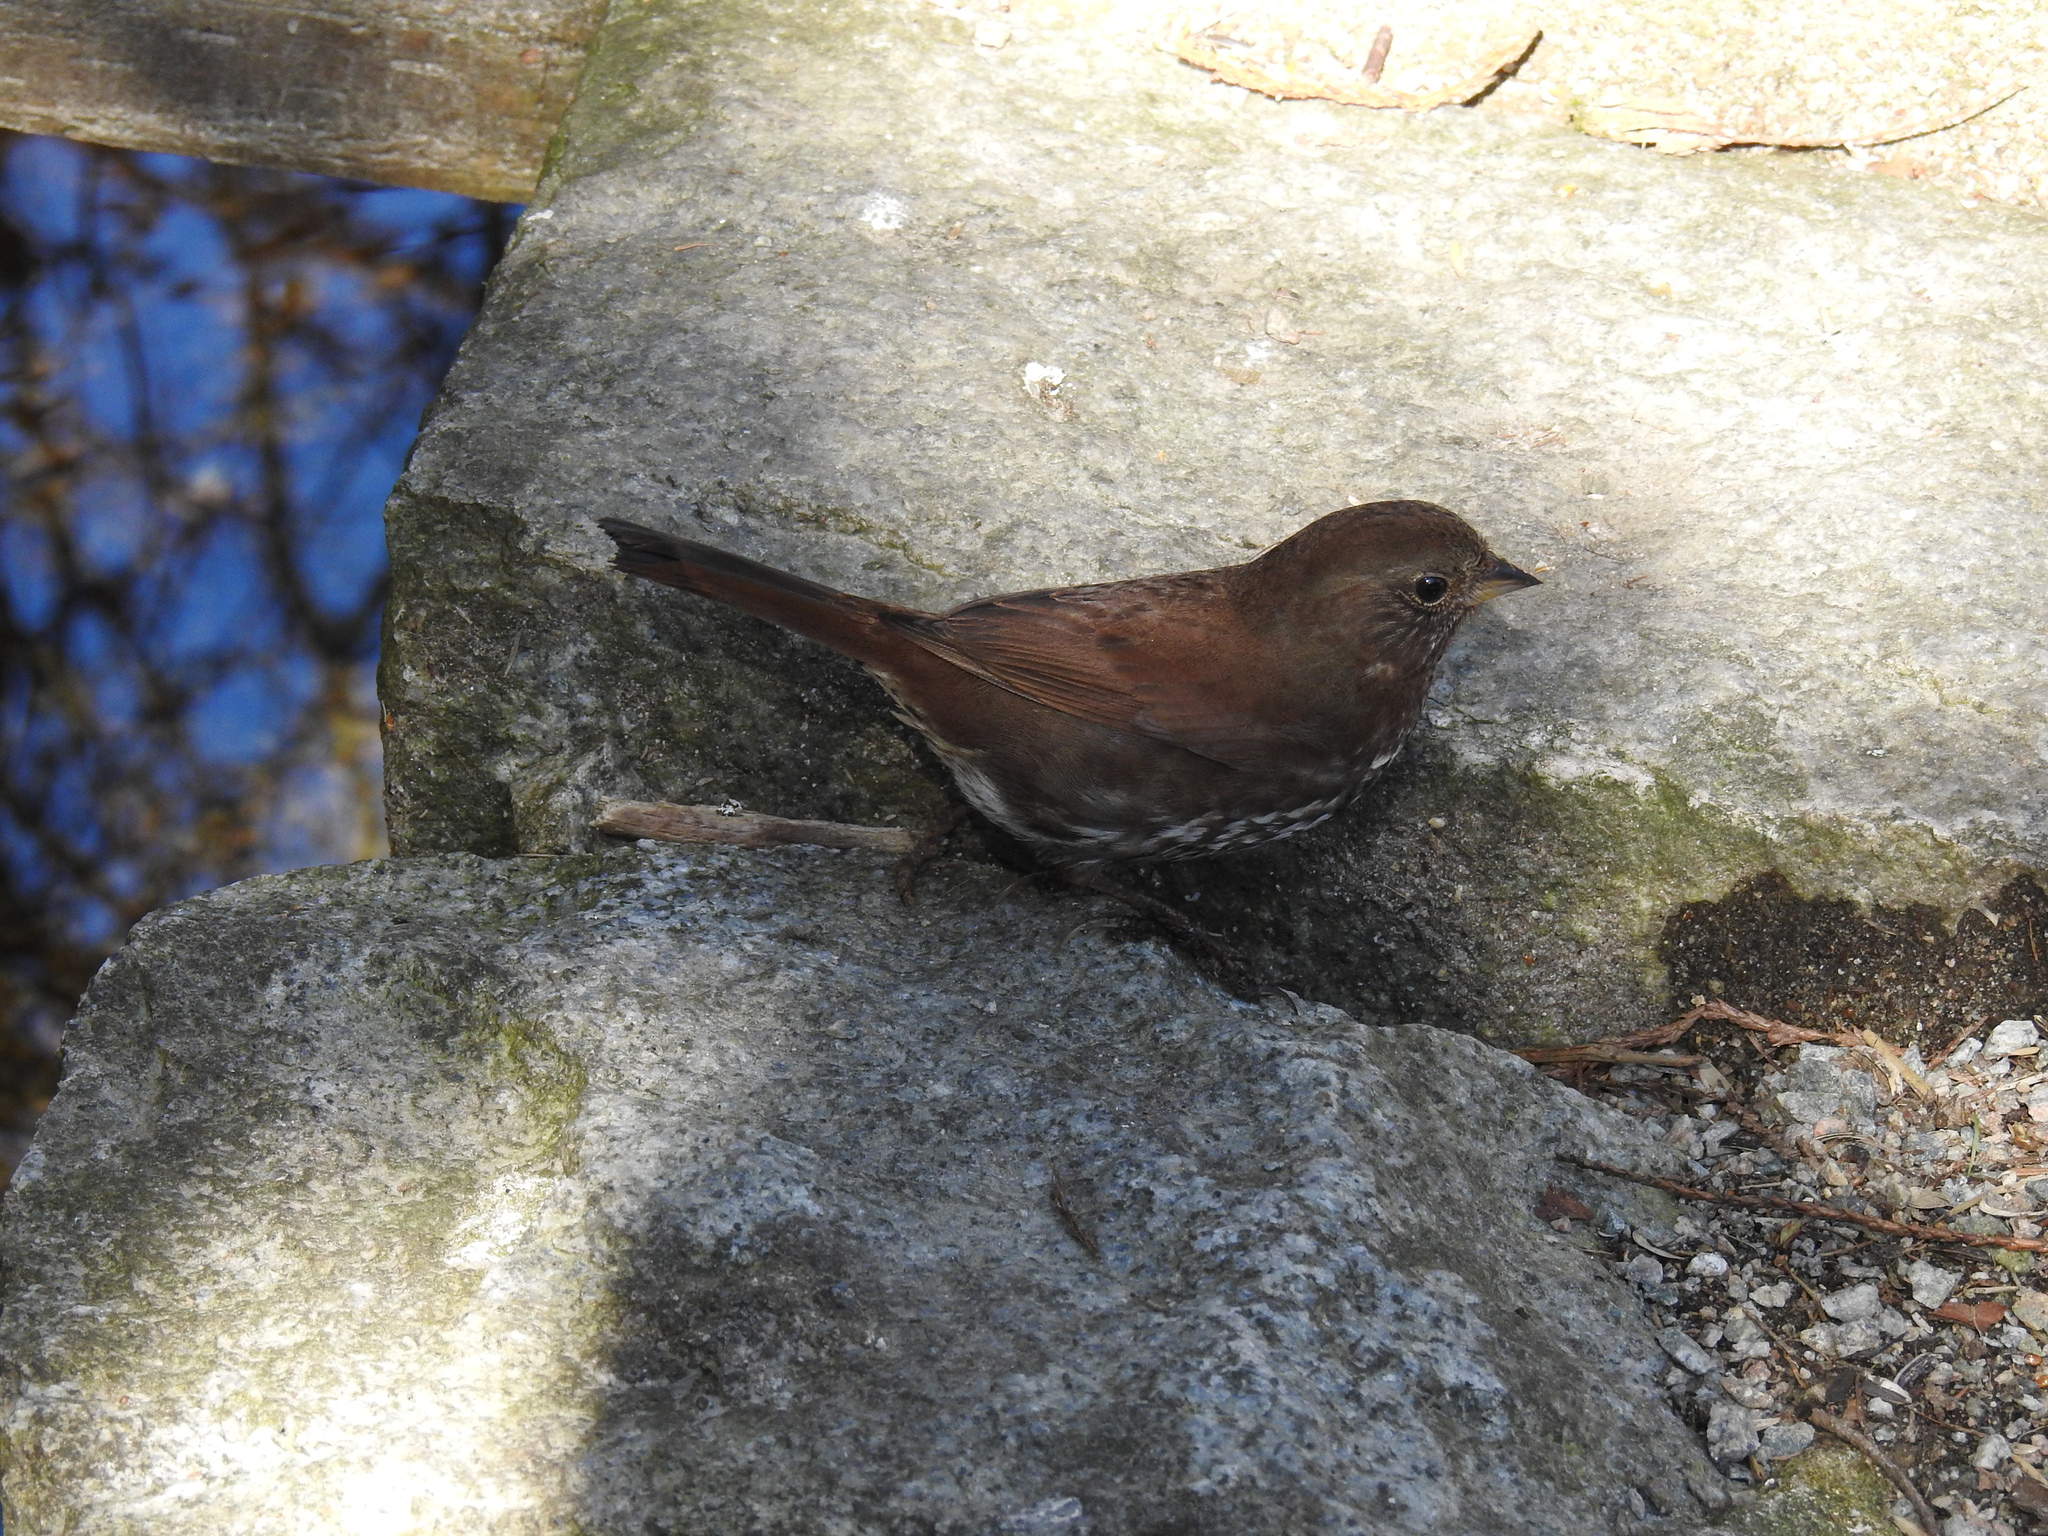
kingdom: Animalia
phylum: Chordata
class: Aves
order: Passeriformes
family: Passerellidae
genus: Passerella
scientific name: Passerella iliaca
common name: Fox sparrow
